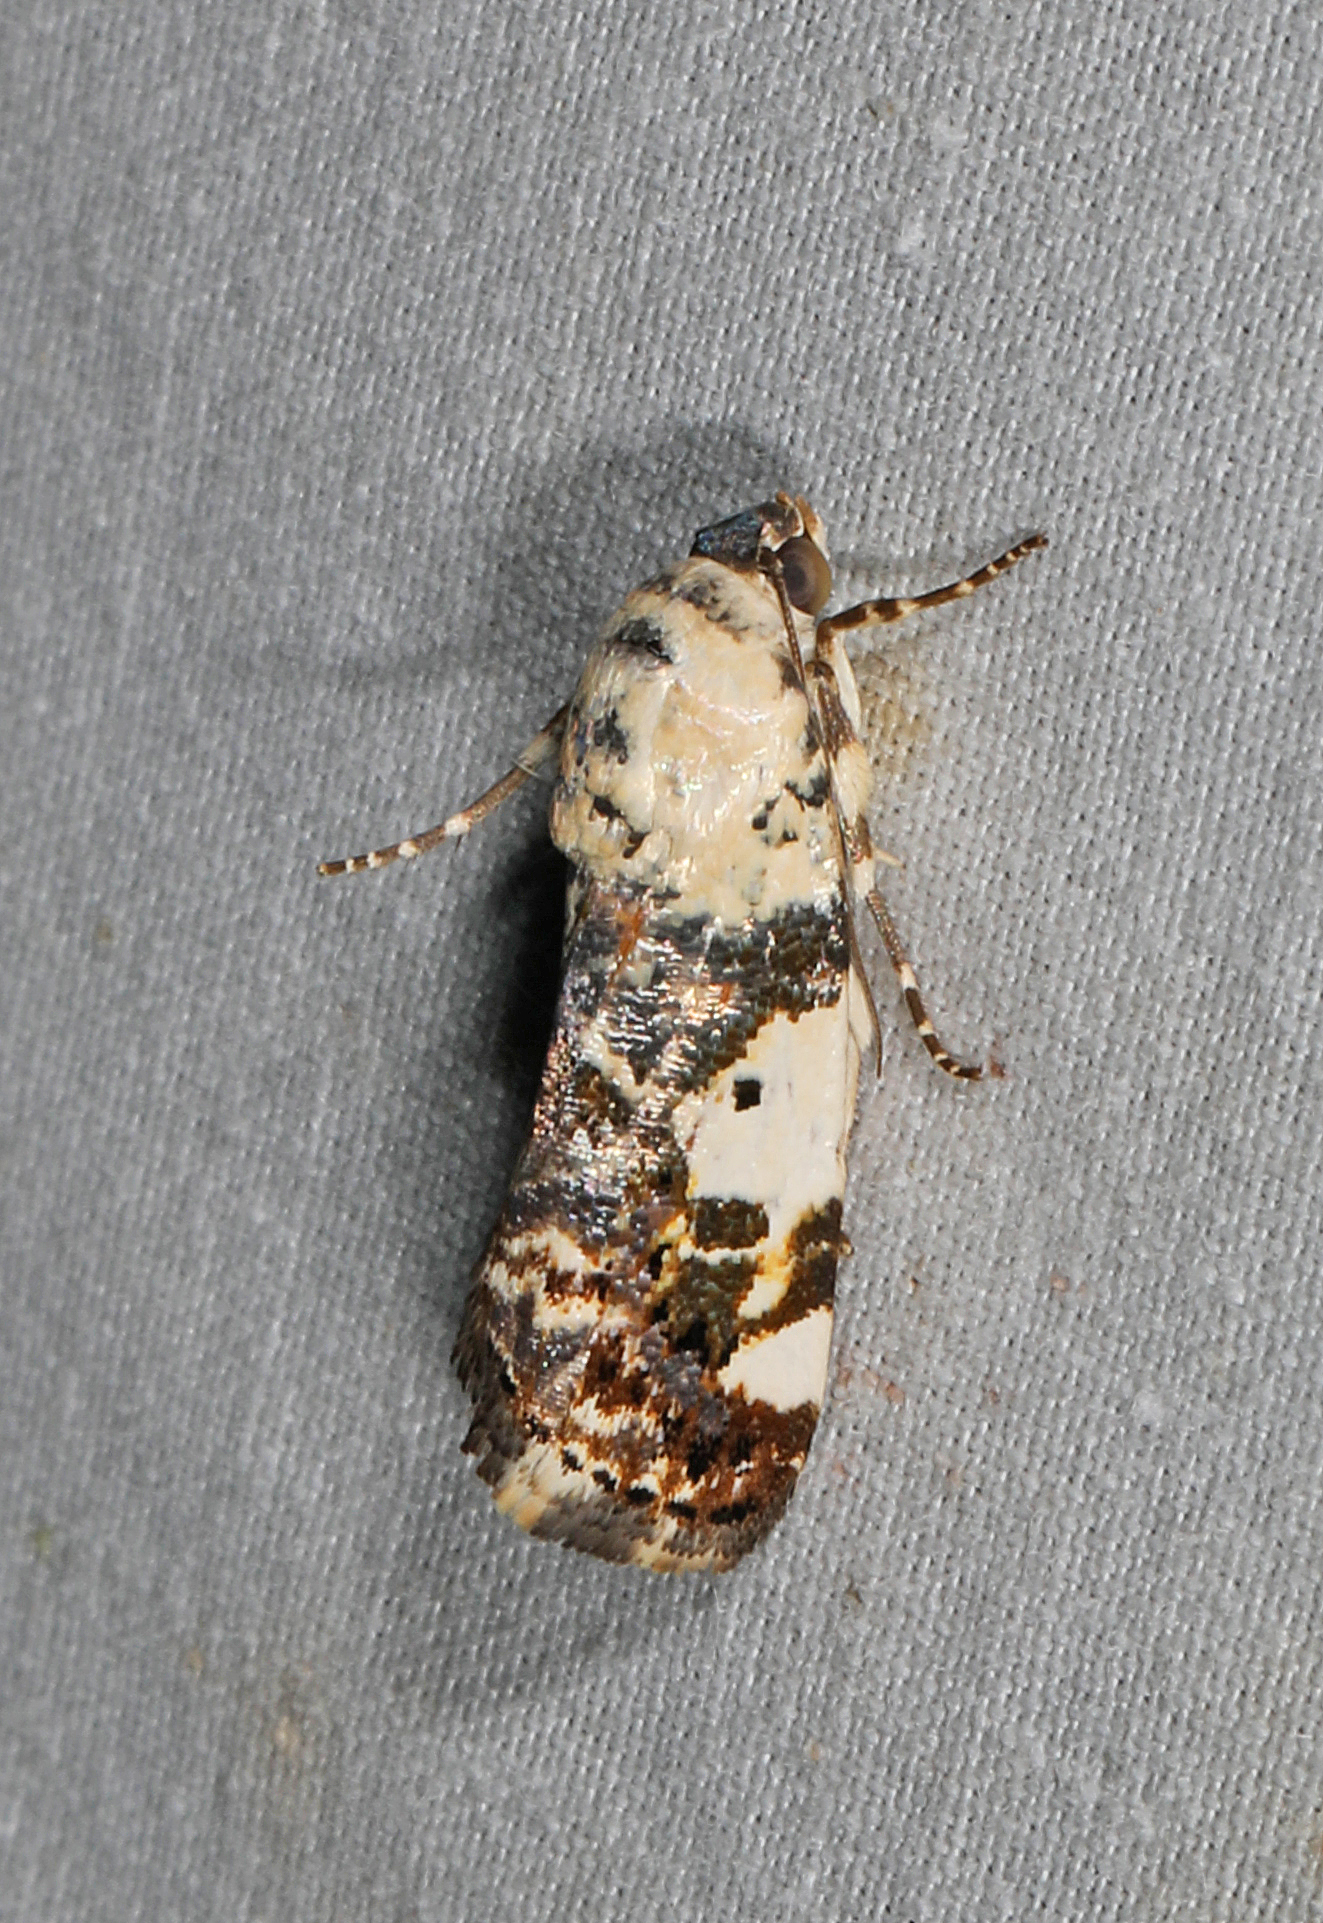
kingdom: Animalia
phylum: Arthropoda
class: Insecta
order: Lepidoptera
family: Noctuidae
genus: Acontia
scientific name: Acontia aprica
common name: Nun
